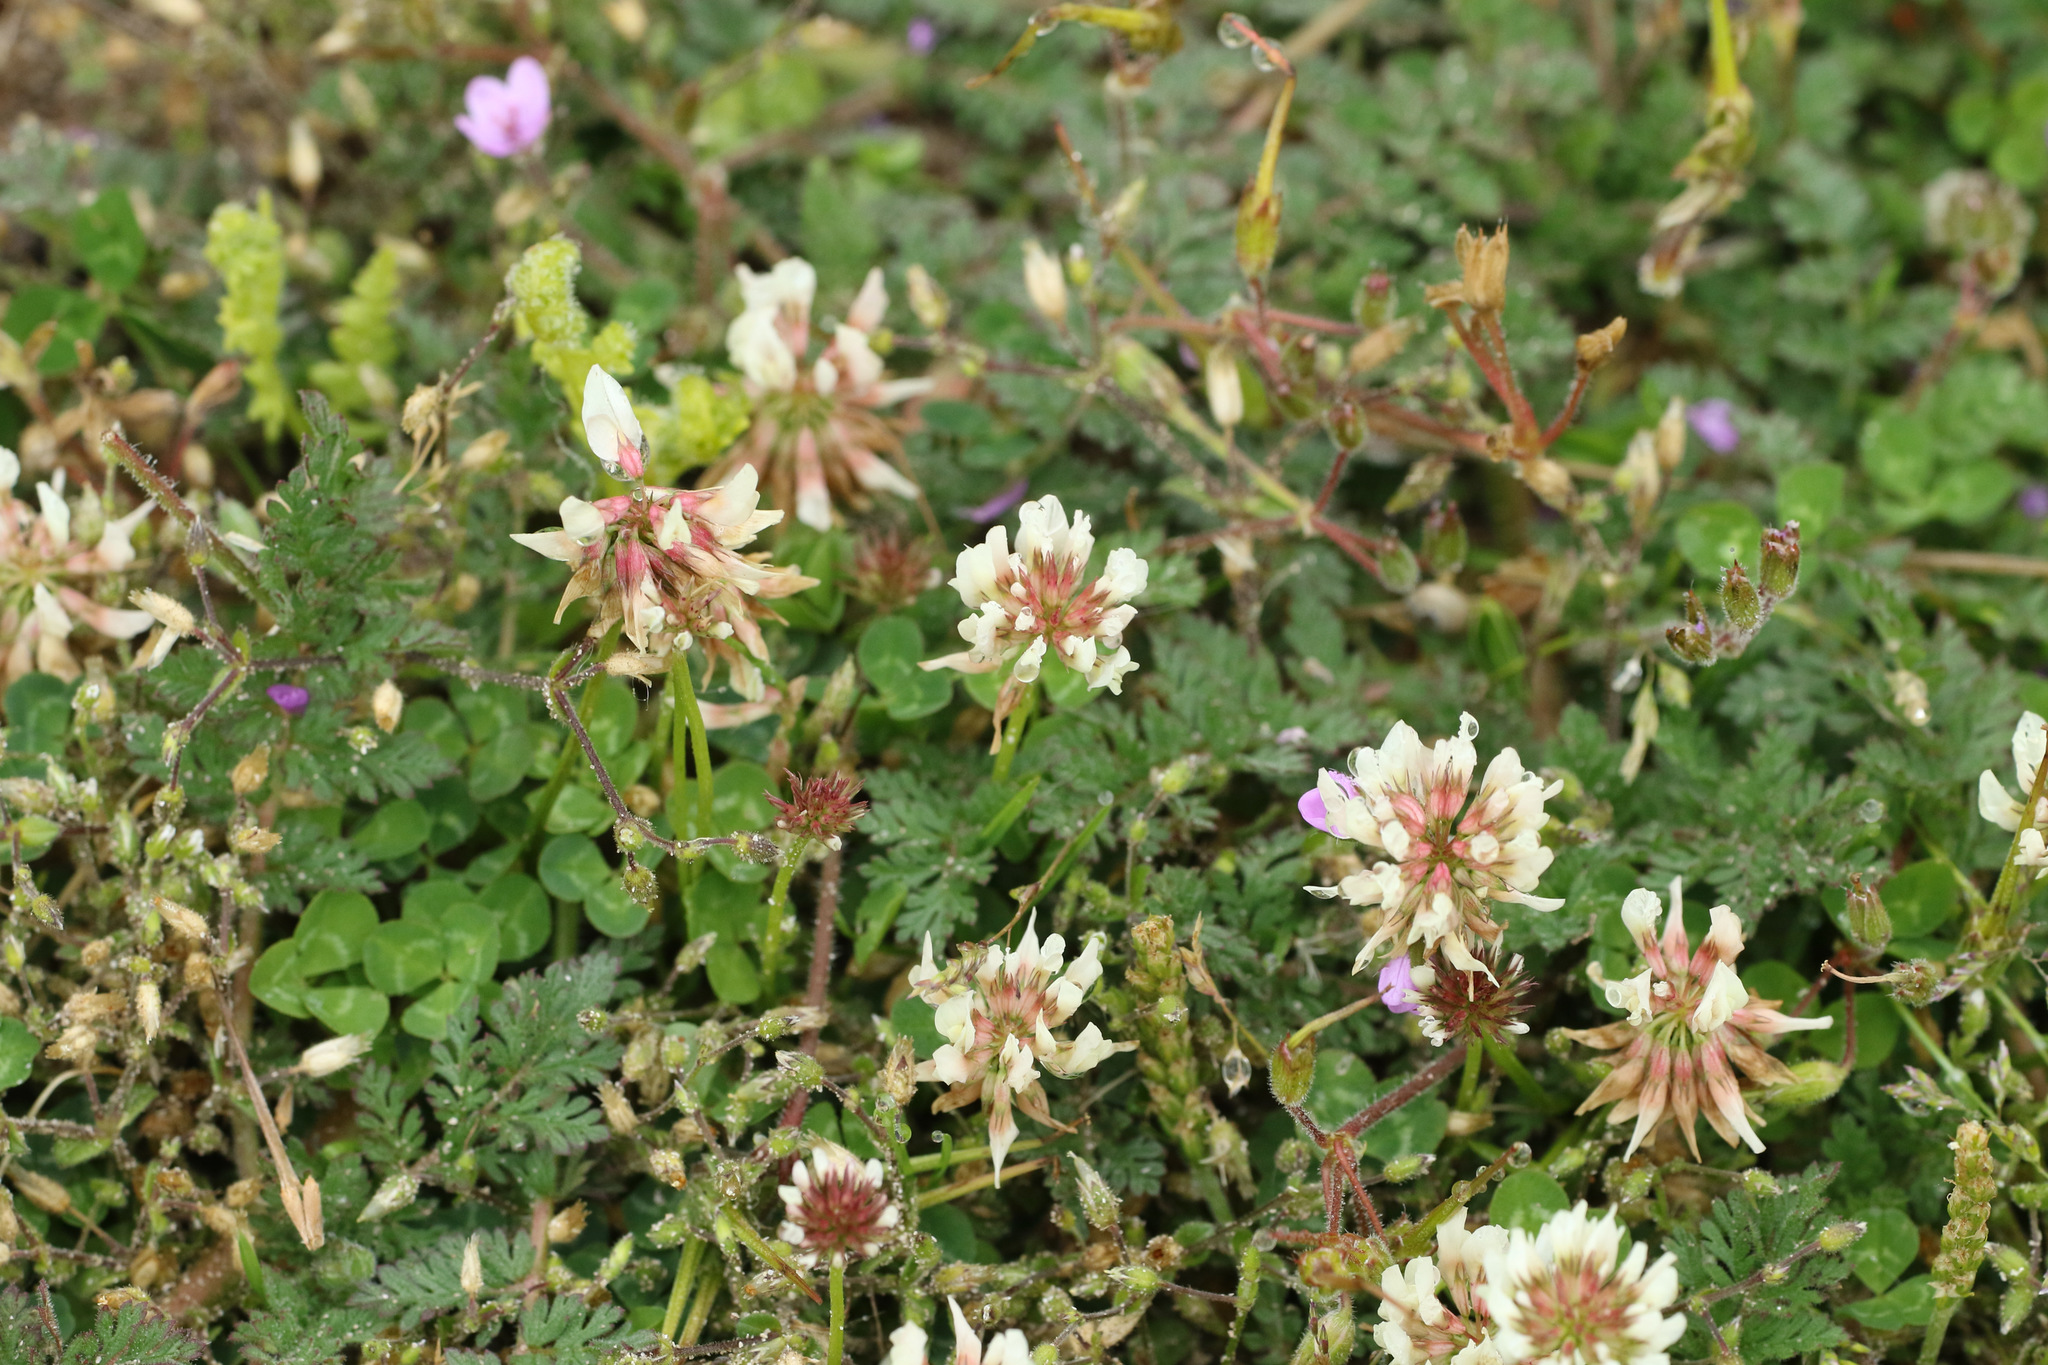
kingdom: Plantae
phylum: Tracheophyta
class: Magnoliopsida
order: Fabales
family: Fabaceae
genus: Trifolium
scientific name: Trifolium repens
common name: White clover
